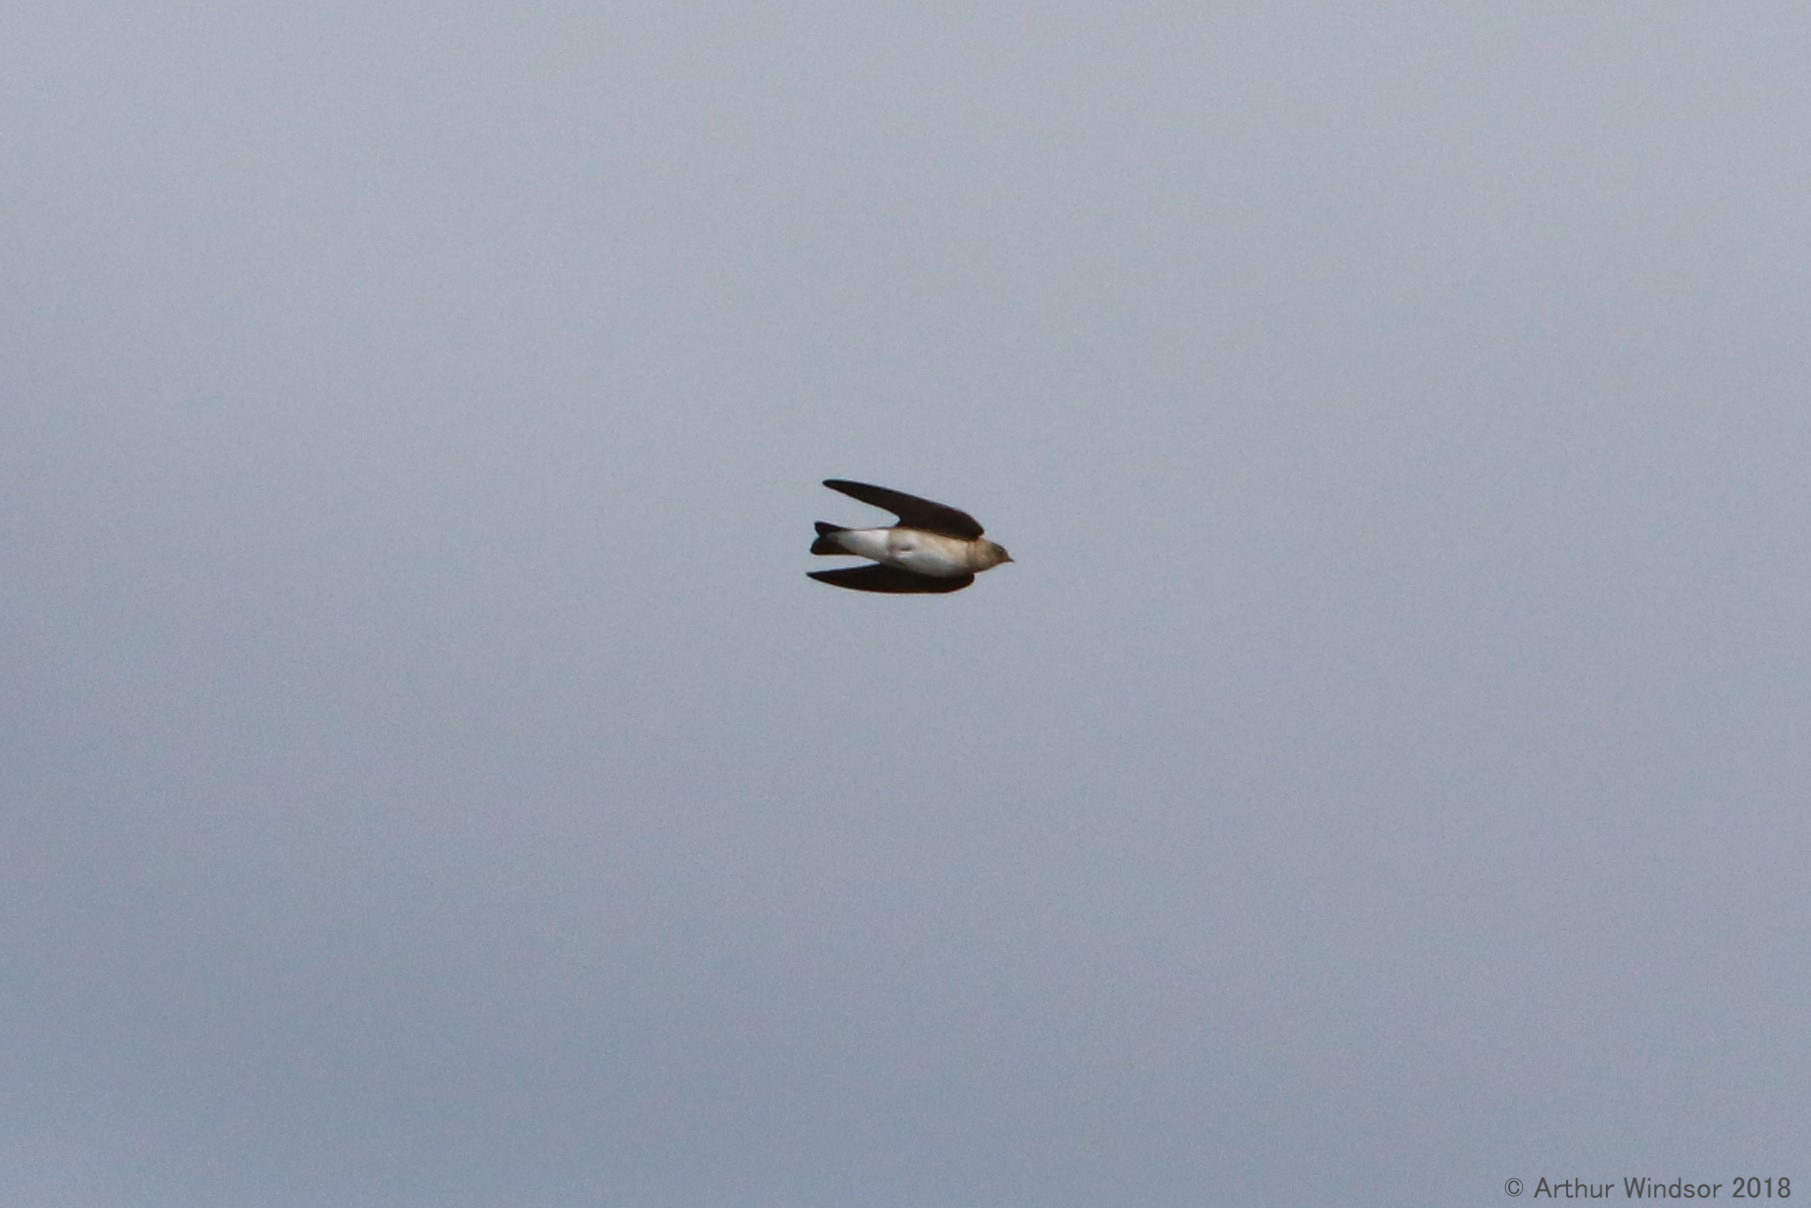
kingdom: Animalia
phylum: Chordata
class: Aves
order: Passeriformes
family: Hirundinidae
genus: Stelgidopteryx
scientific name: Stelgidopteryx serripennis
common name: Northern rough-winged swallow
